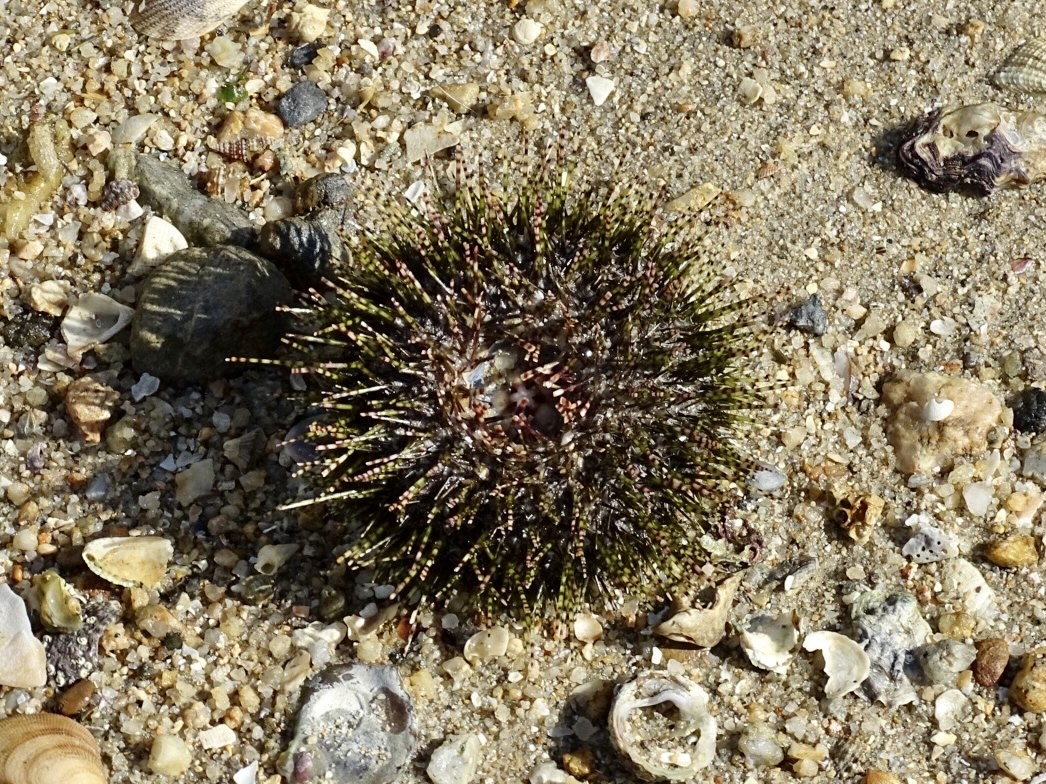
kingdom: Animalia
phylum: Echinodermata
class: Echinoidea
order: Camarodonta
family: Temnopleuridae
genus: Salmacis
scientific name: Salmacis sphaeroides
